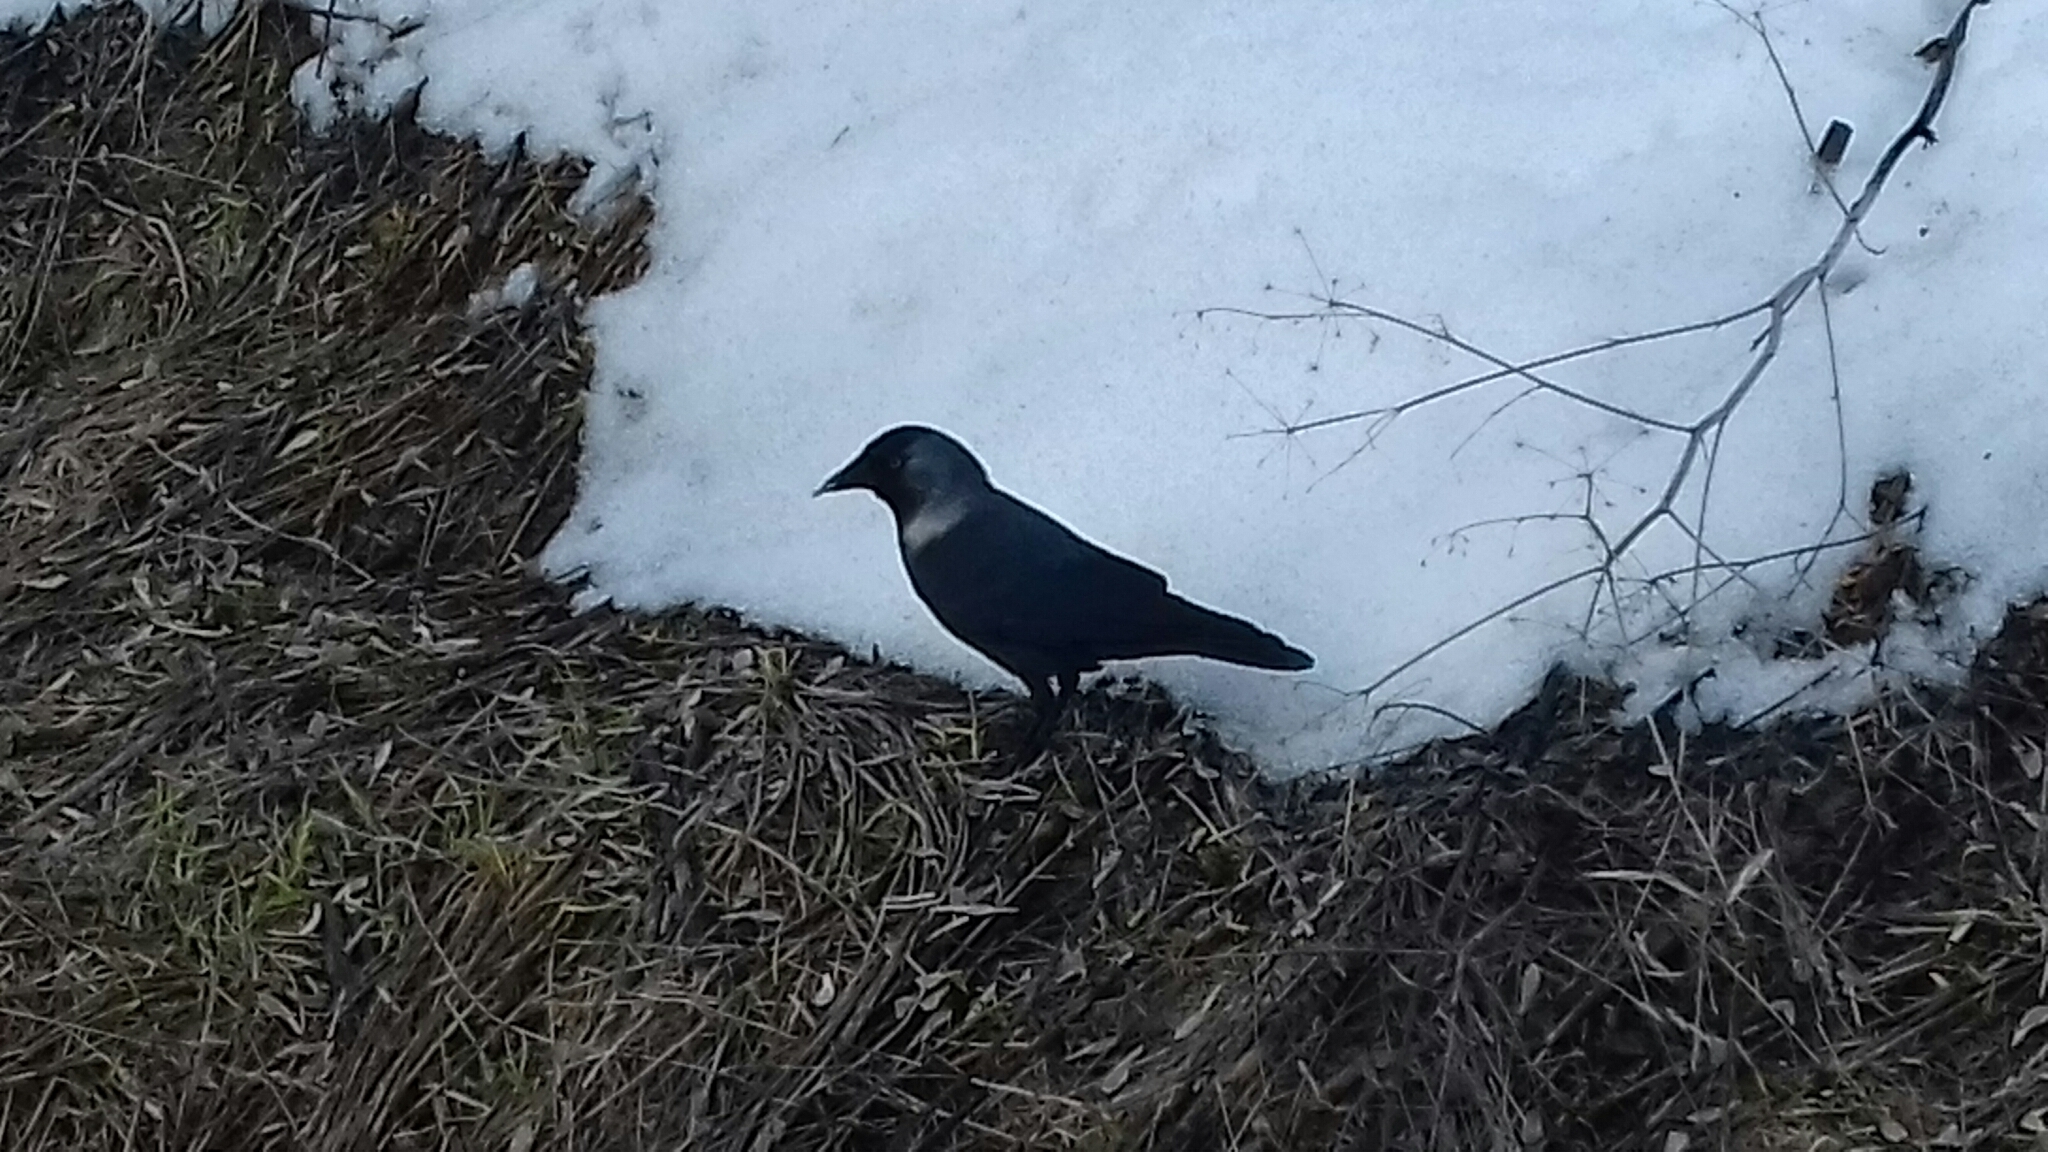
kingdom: Animalia
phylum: Chordata
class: Aves
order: Passeriformes
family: Corvidae
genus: Coloeus
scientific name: Coloeus monedula
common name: Western jackdaw
